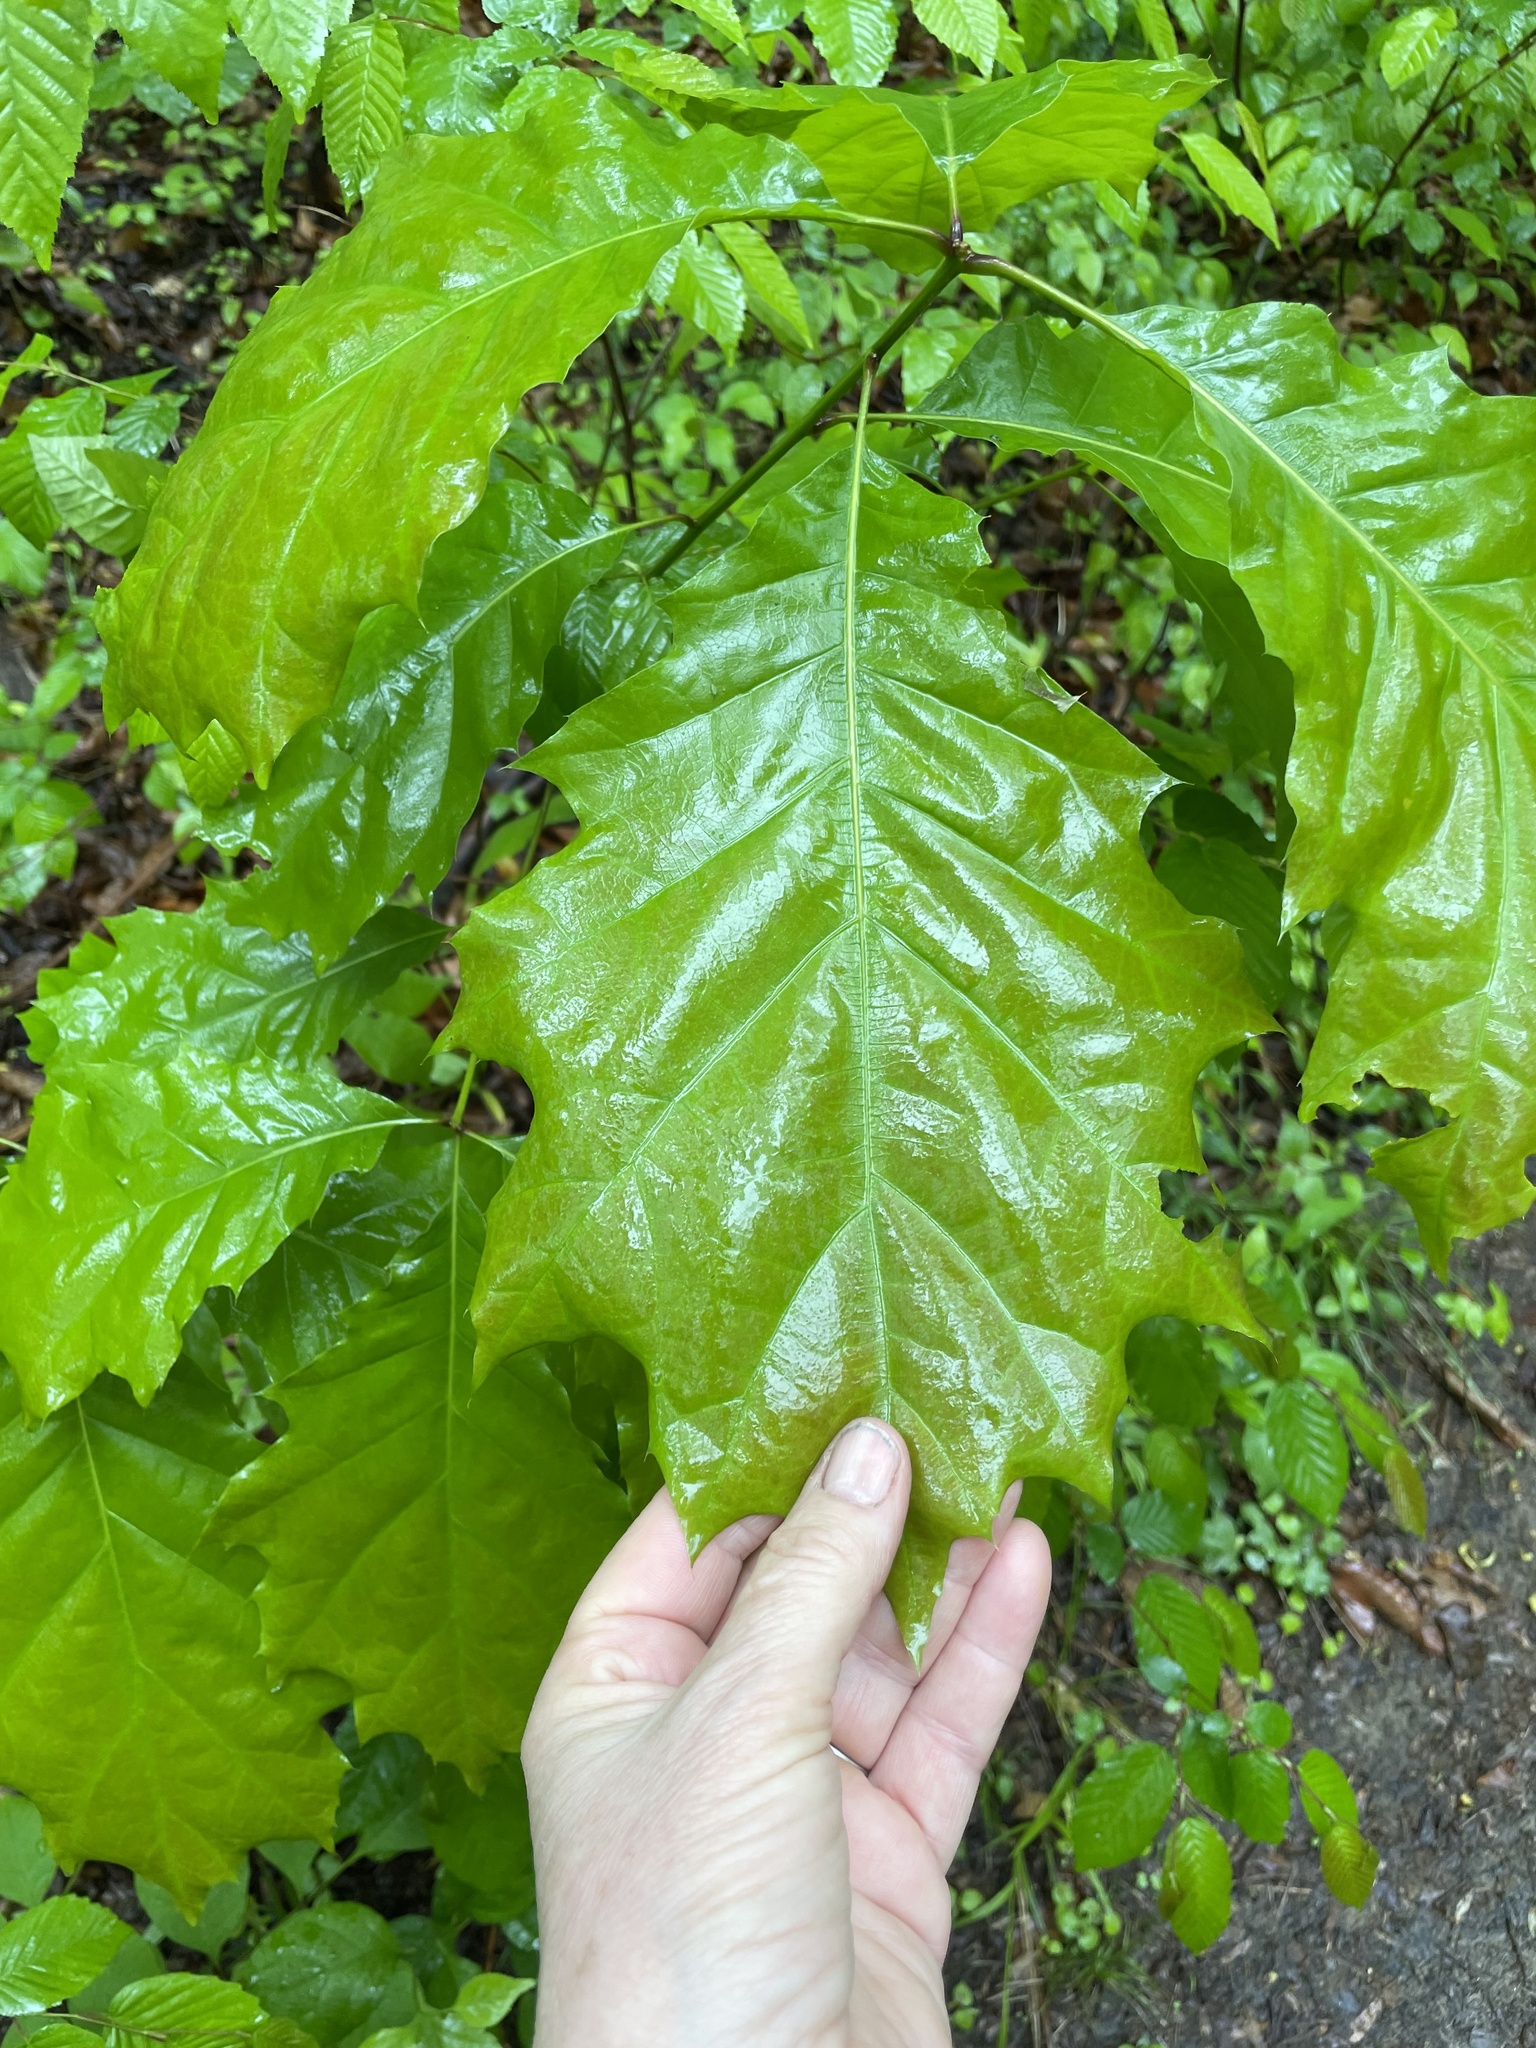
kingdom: Plantae
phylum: Tracheophyta
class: Magnoliopsida
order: Fagales
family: Fagaceae
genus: Quercus
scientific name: Quercus rubra
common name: Red oak
